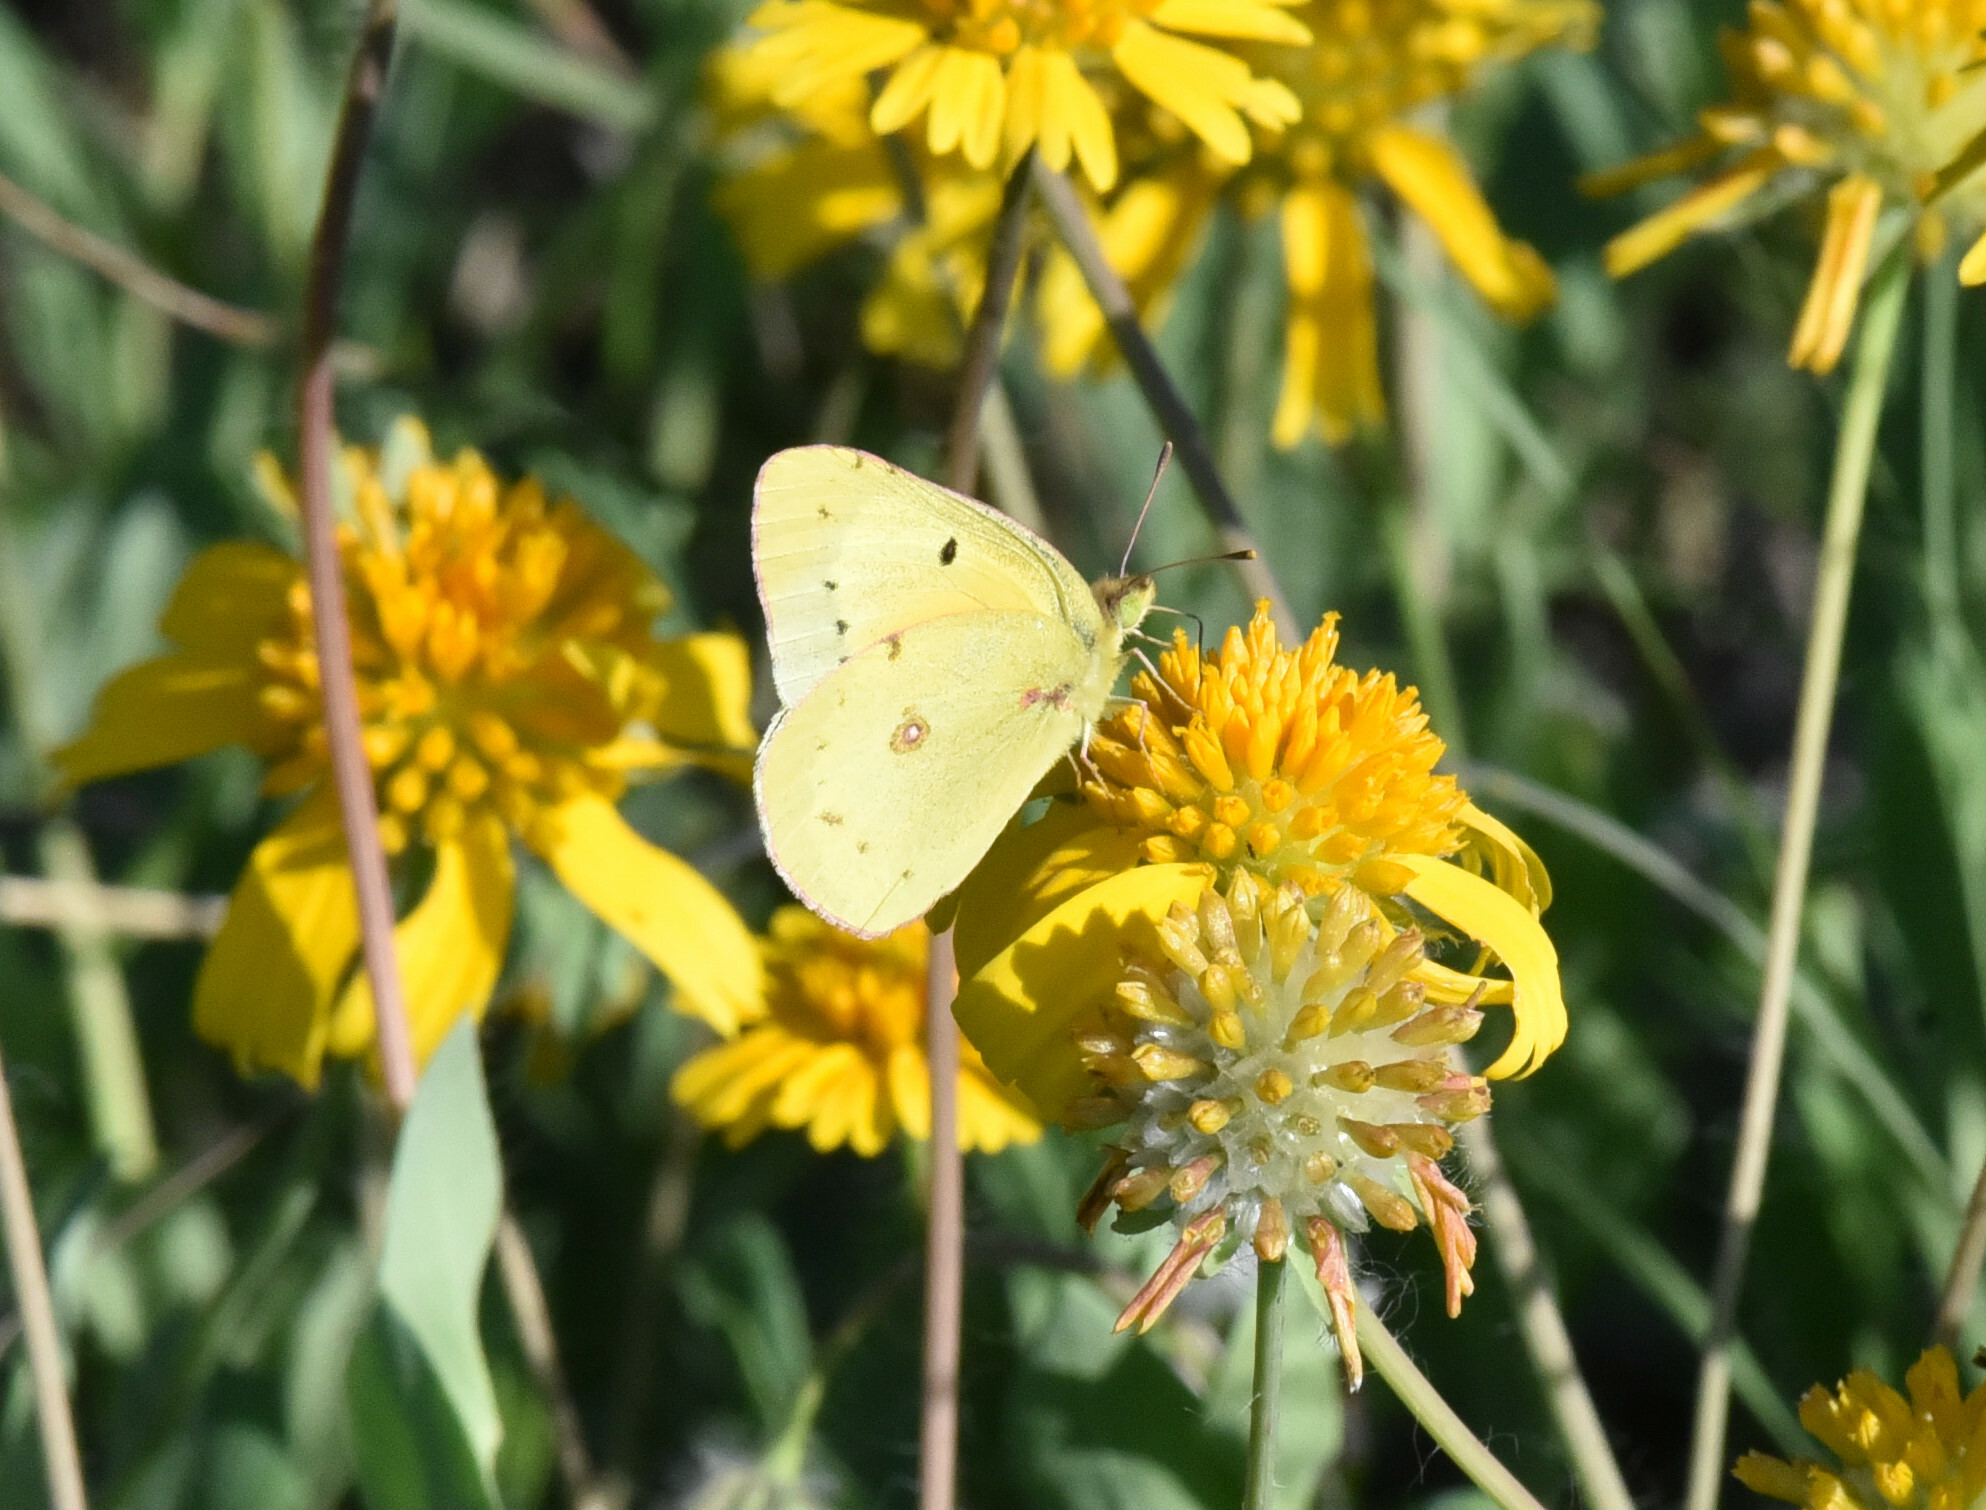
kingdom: Animalia
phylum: Arthropoda
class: Insecta
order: Lepidoptera
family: Pieridae
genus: Colias
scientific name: Colias eurytheme
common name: Alfalfa butterfly
